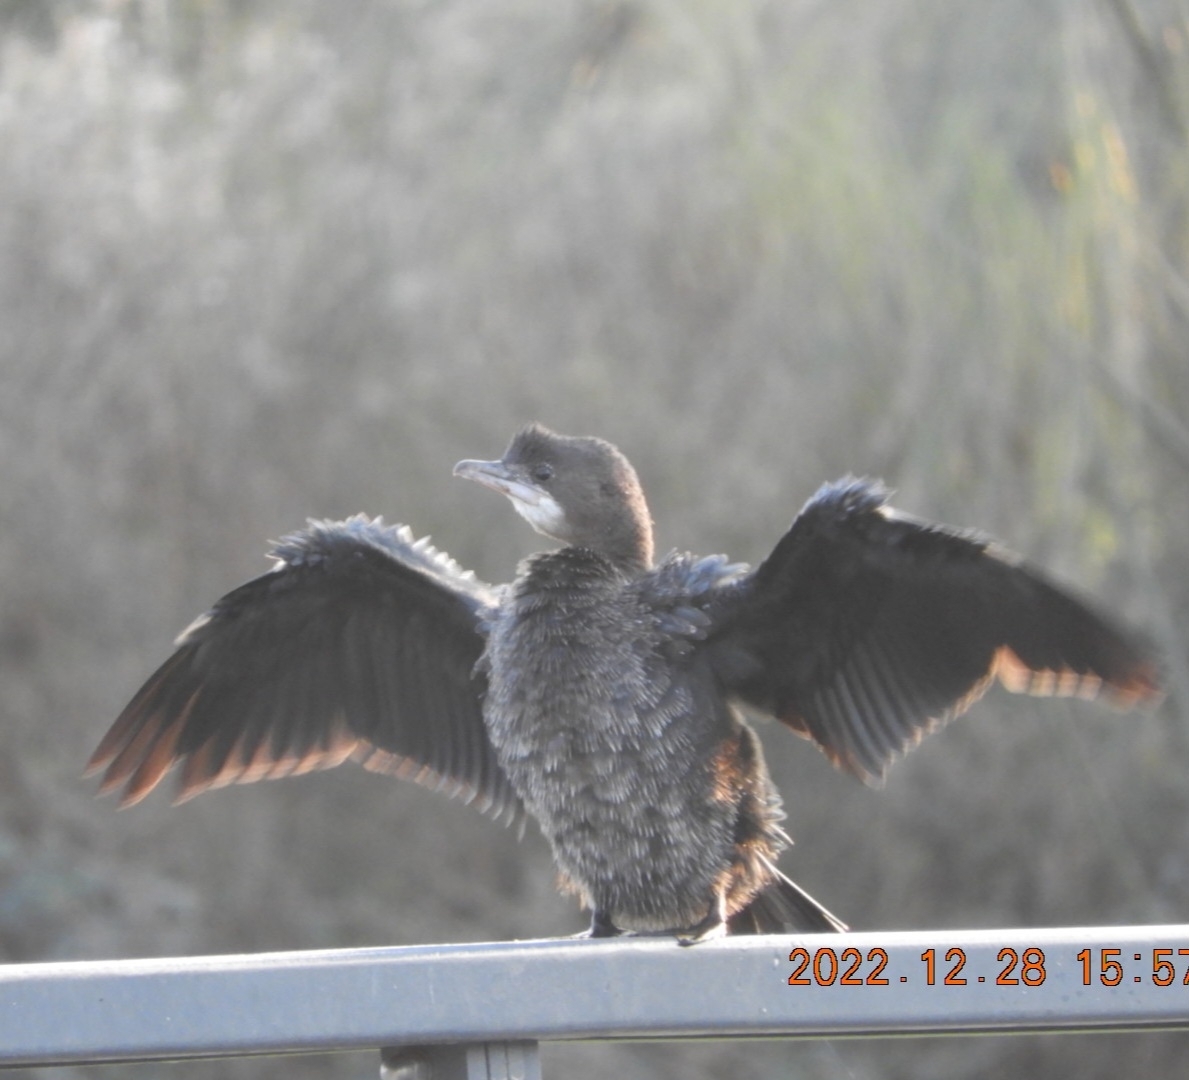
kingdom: Animalia
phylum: Chordata
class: Aves
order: Suliformes
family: Phalacrocoracidae
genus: Microcarbo
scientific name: Microcarbo pygmaeus
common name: Pygmy cormorant
